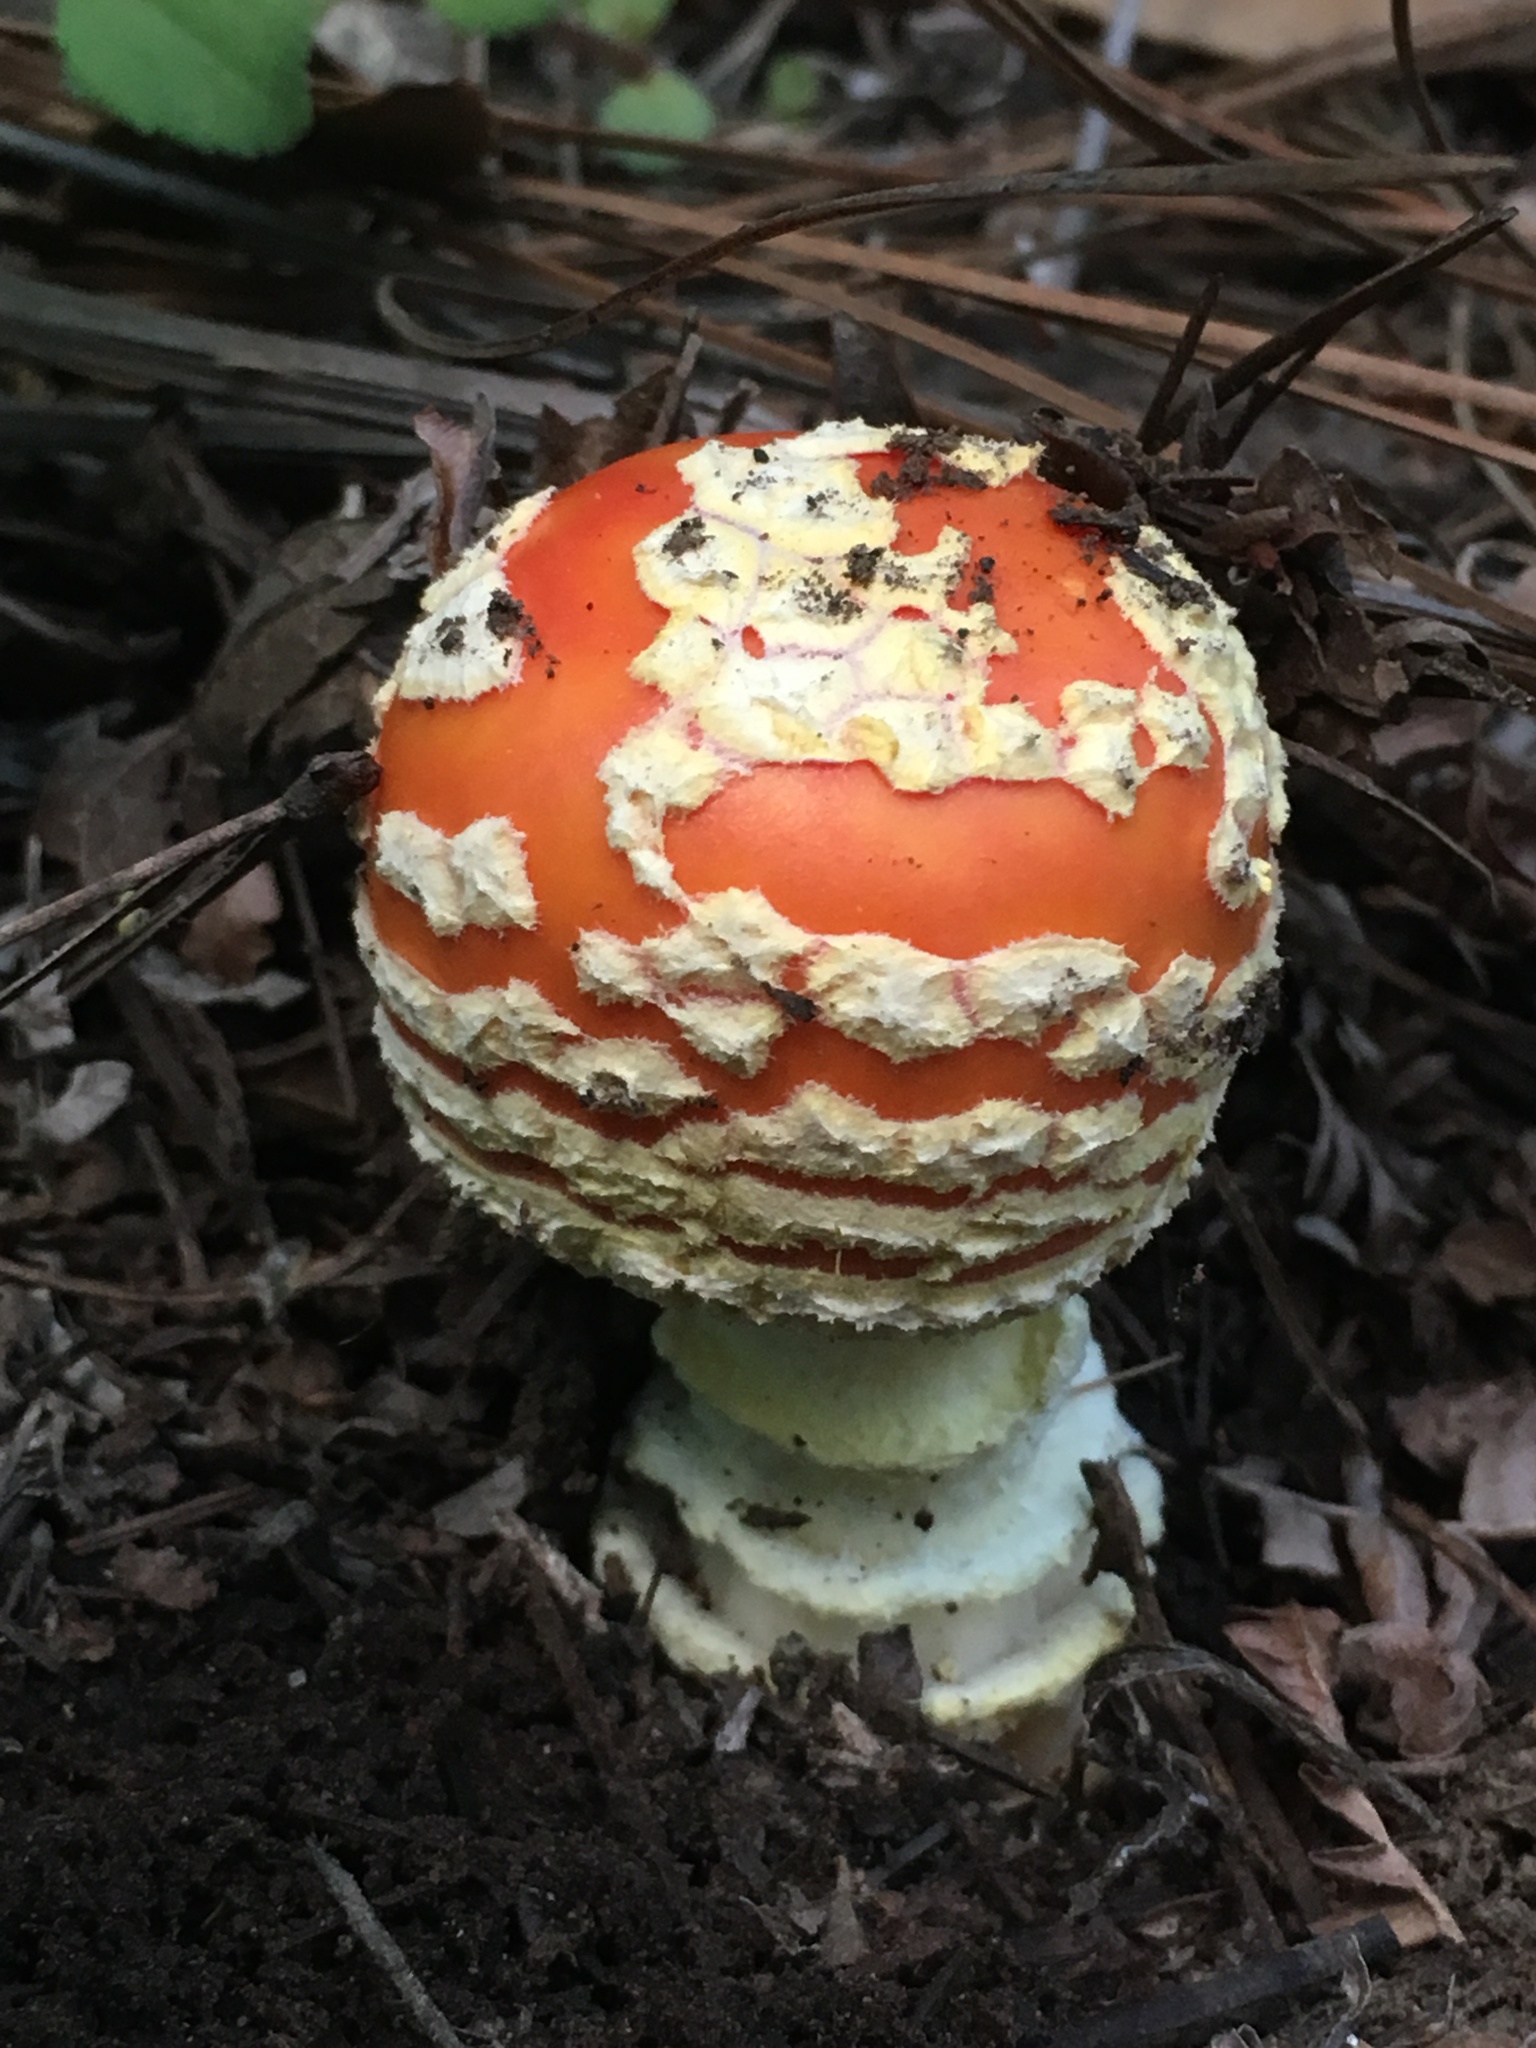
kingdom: Fungi
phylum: Basidiomycota
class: Agaricomycetes
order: Agaricales
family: Amanitaceae
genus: Amanita
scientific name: Amanita muscaria
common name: Fly agaric
